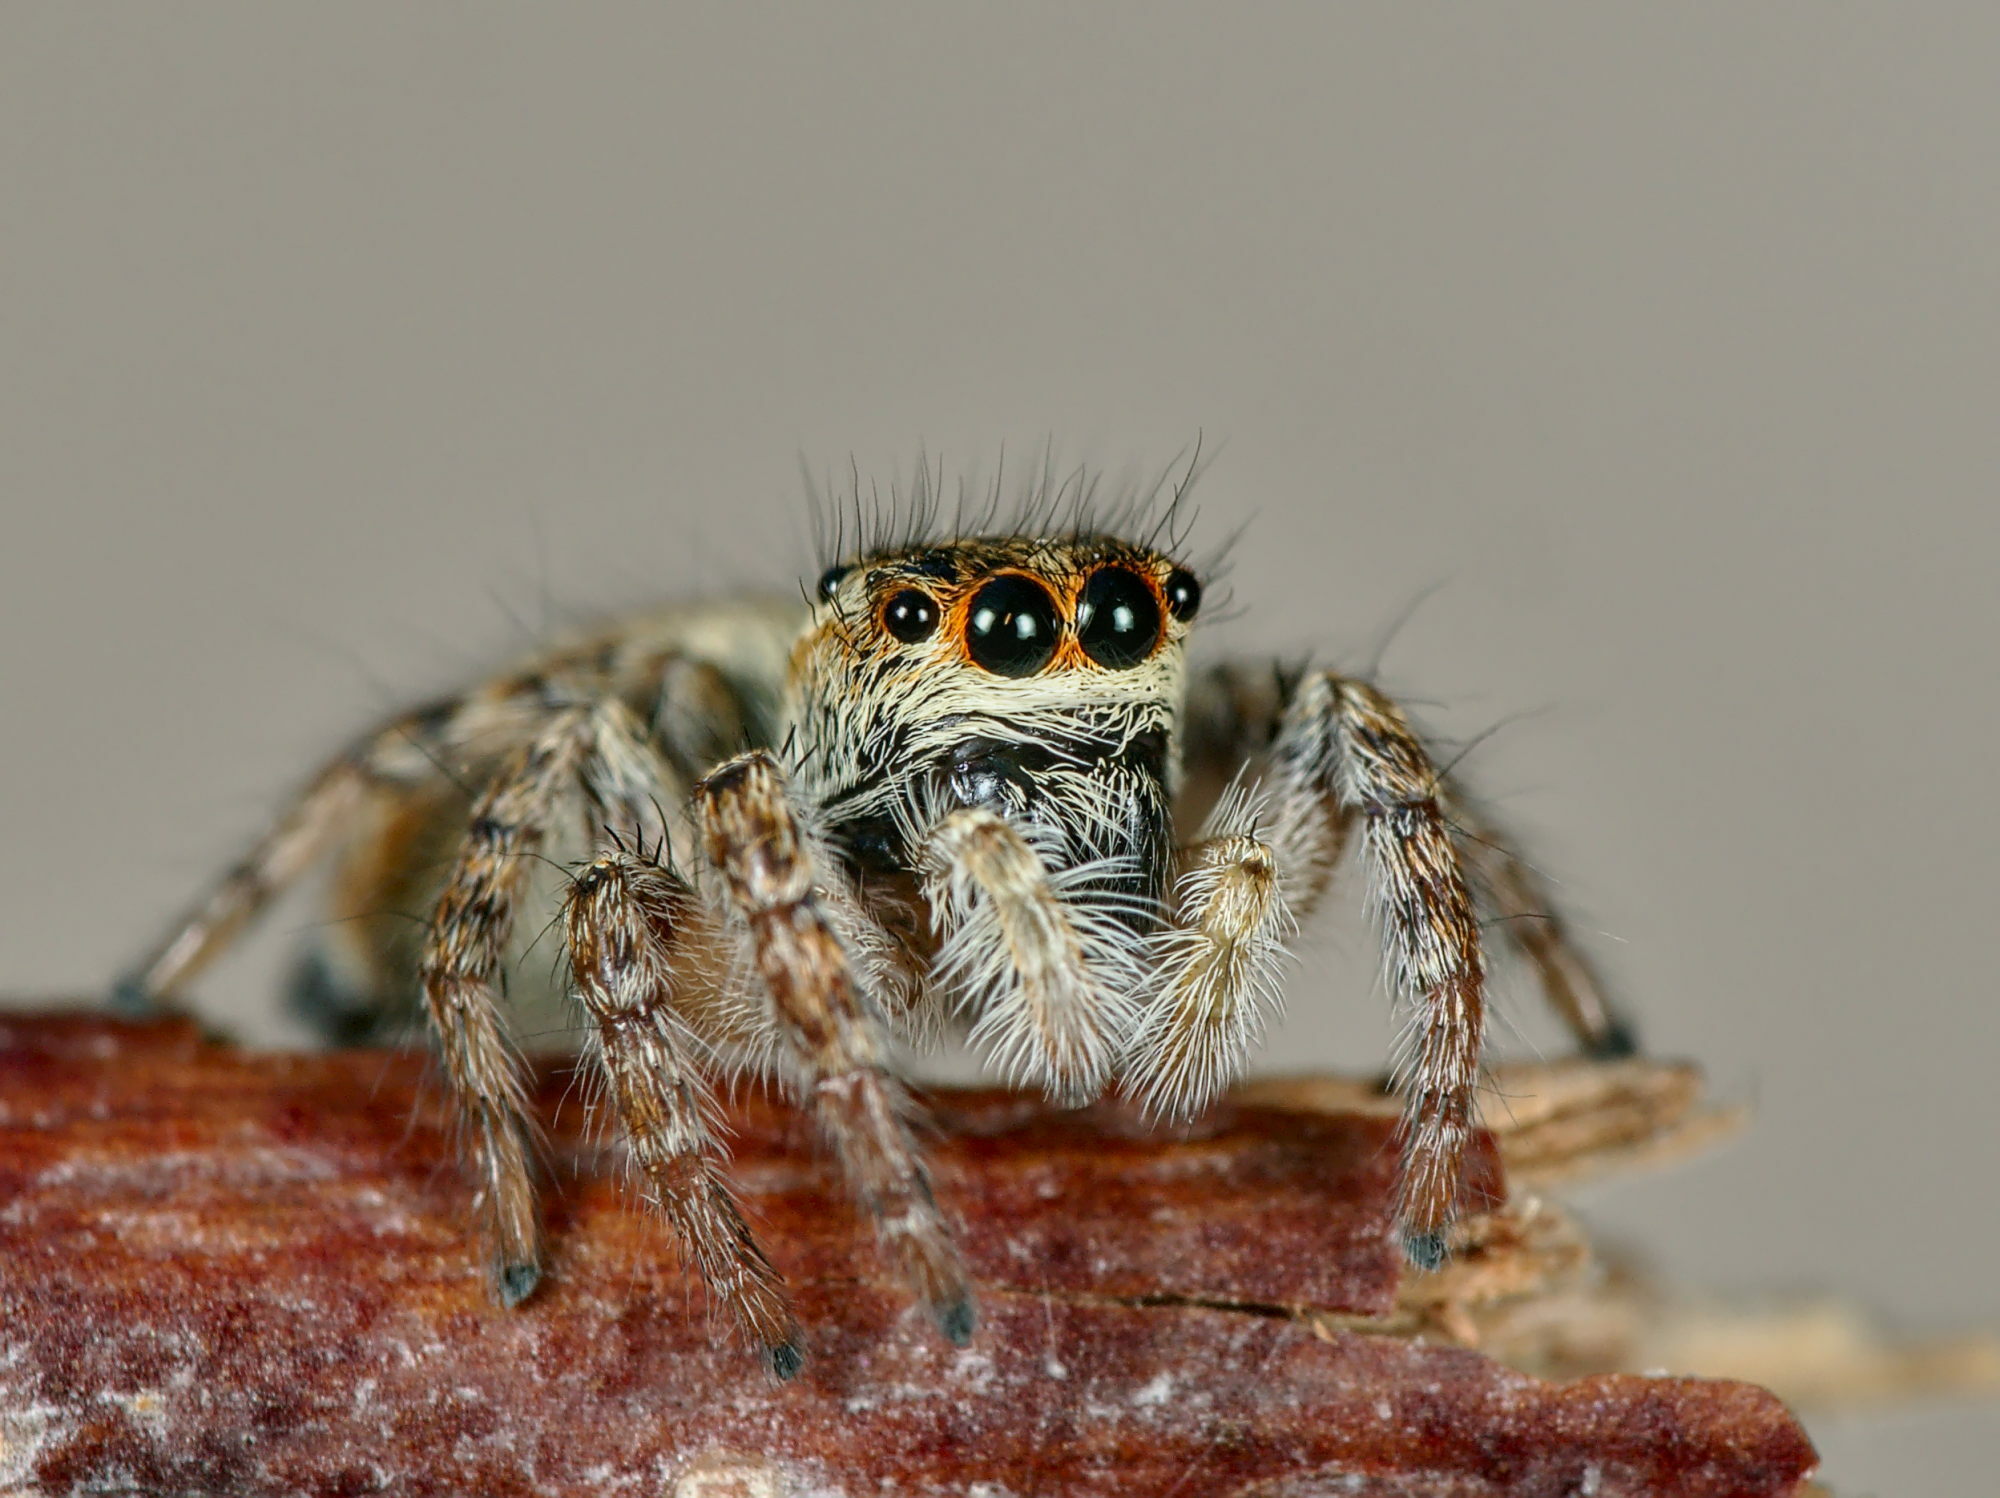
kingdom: Animalia
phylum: Arthropoda
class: Arachnida
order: Araneae
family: Salticidae
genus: Carrhotus
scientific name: Carrhotus xanthogramma
